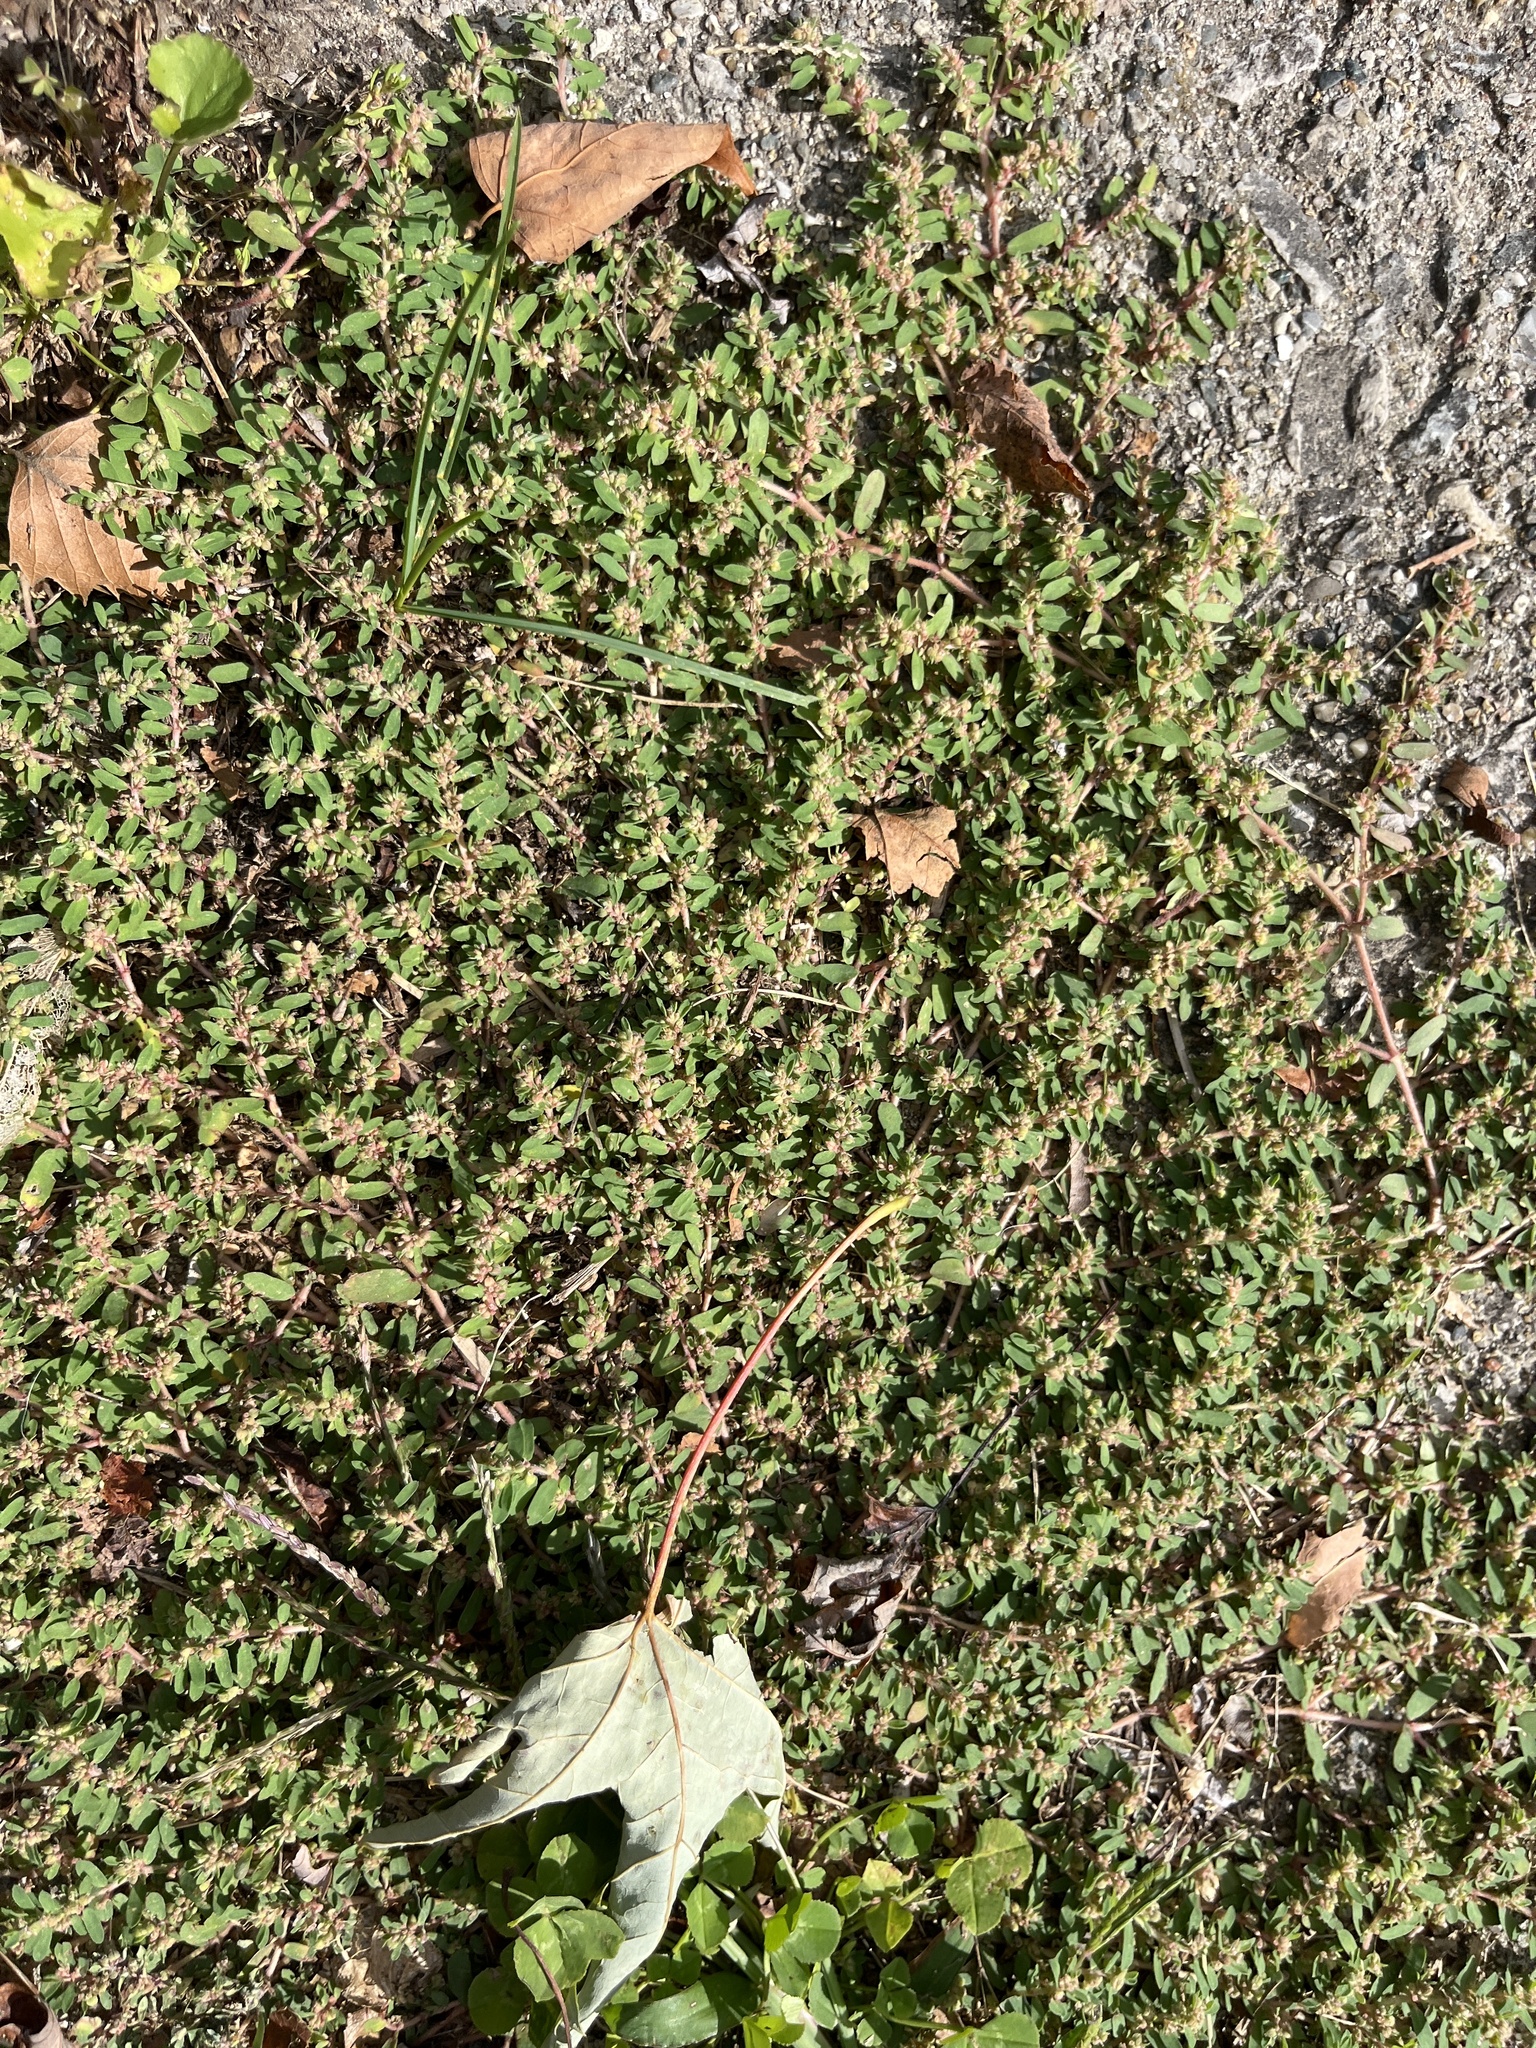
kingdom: Plantae
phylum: Tracheophyta
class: Magnoliopsida
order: Malpighiales
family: Euphorbiaceae
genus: Euphorbia
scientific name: Euphorbia maculata
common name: Spotted spurge
